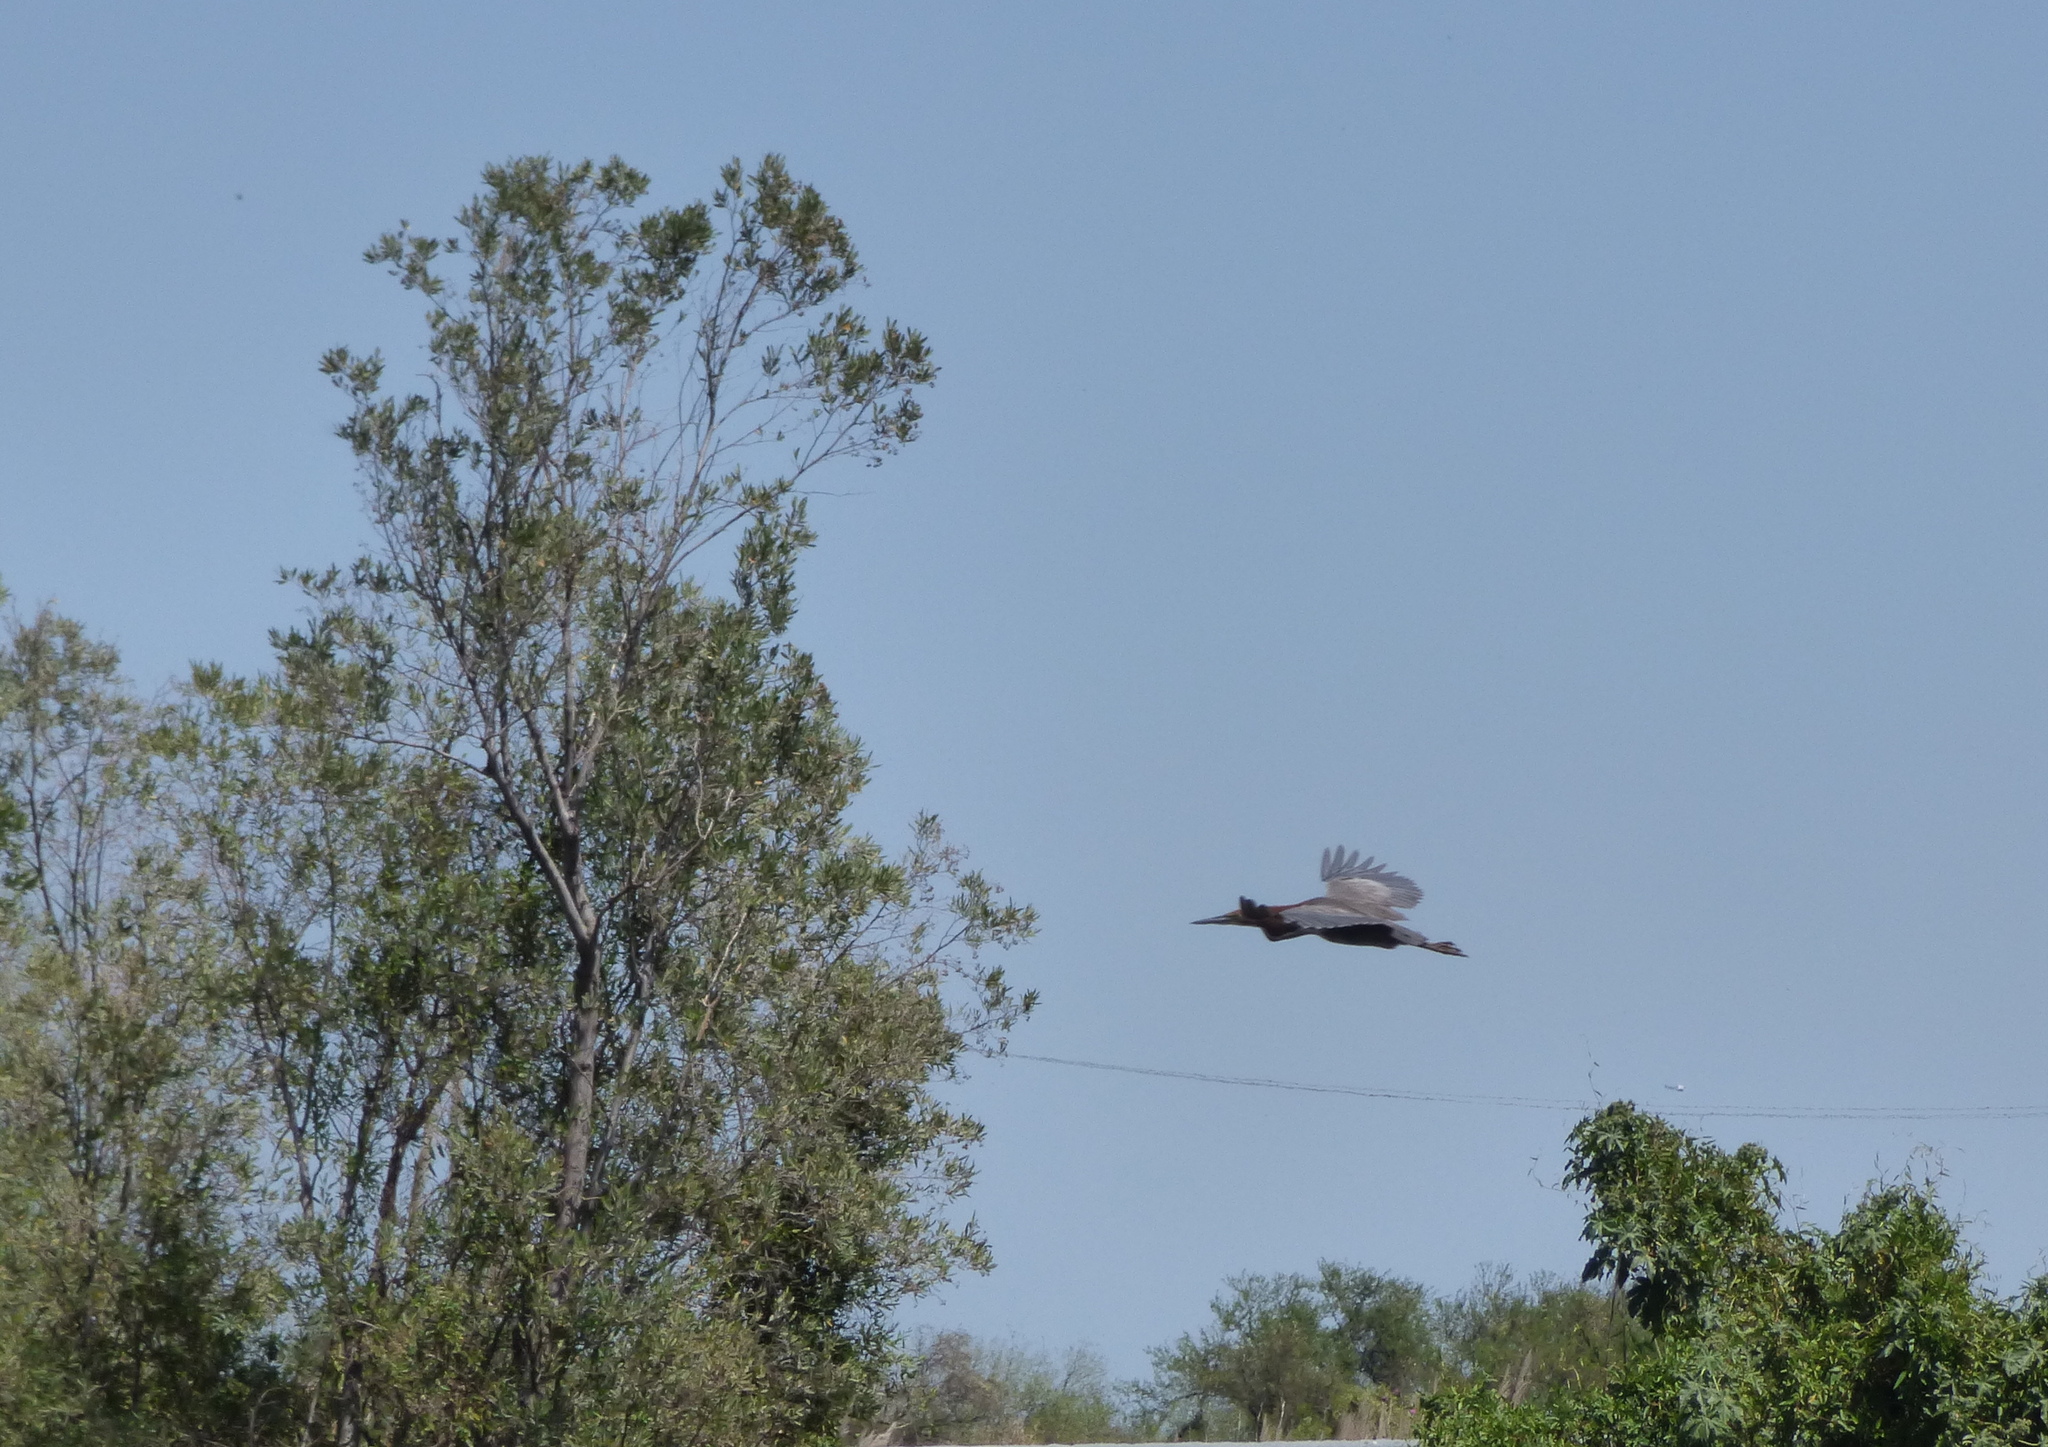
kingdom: Animalia
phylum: Chordata
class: Aves
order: Pelecaniformes
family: Ardeidae
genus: Tigrisoma
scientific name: Tigrisoma lineatum
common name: Rufescent tiger-heron
